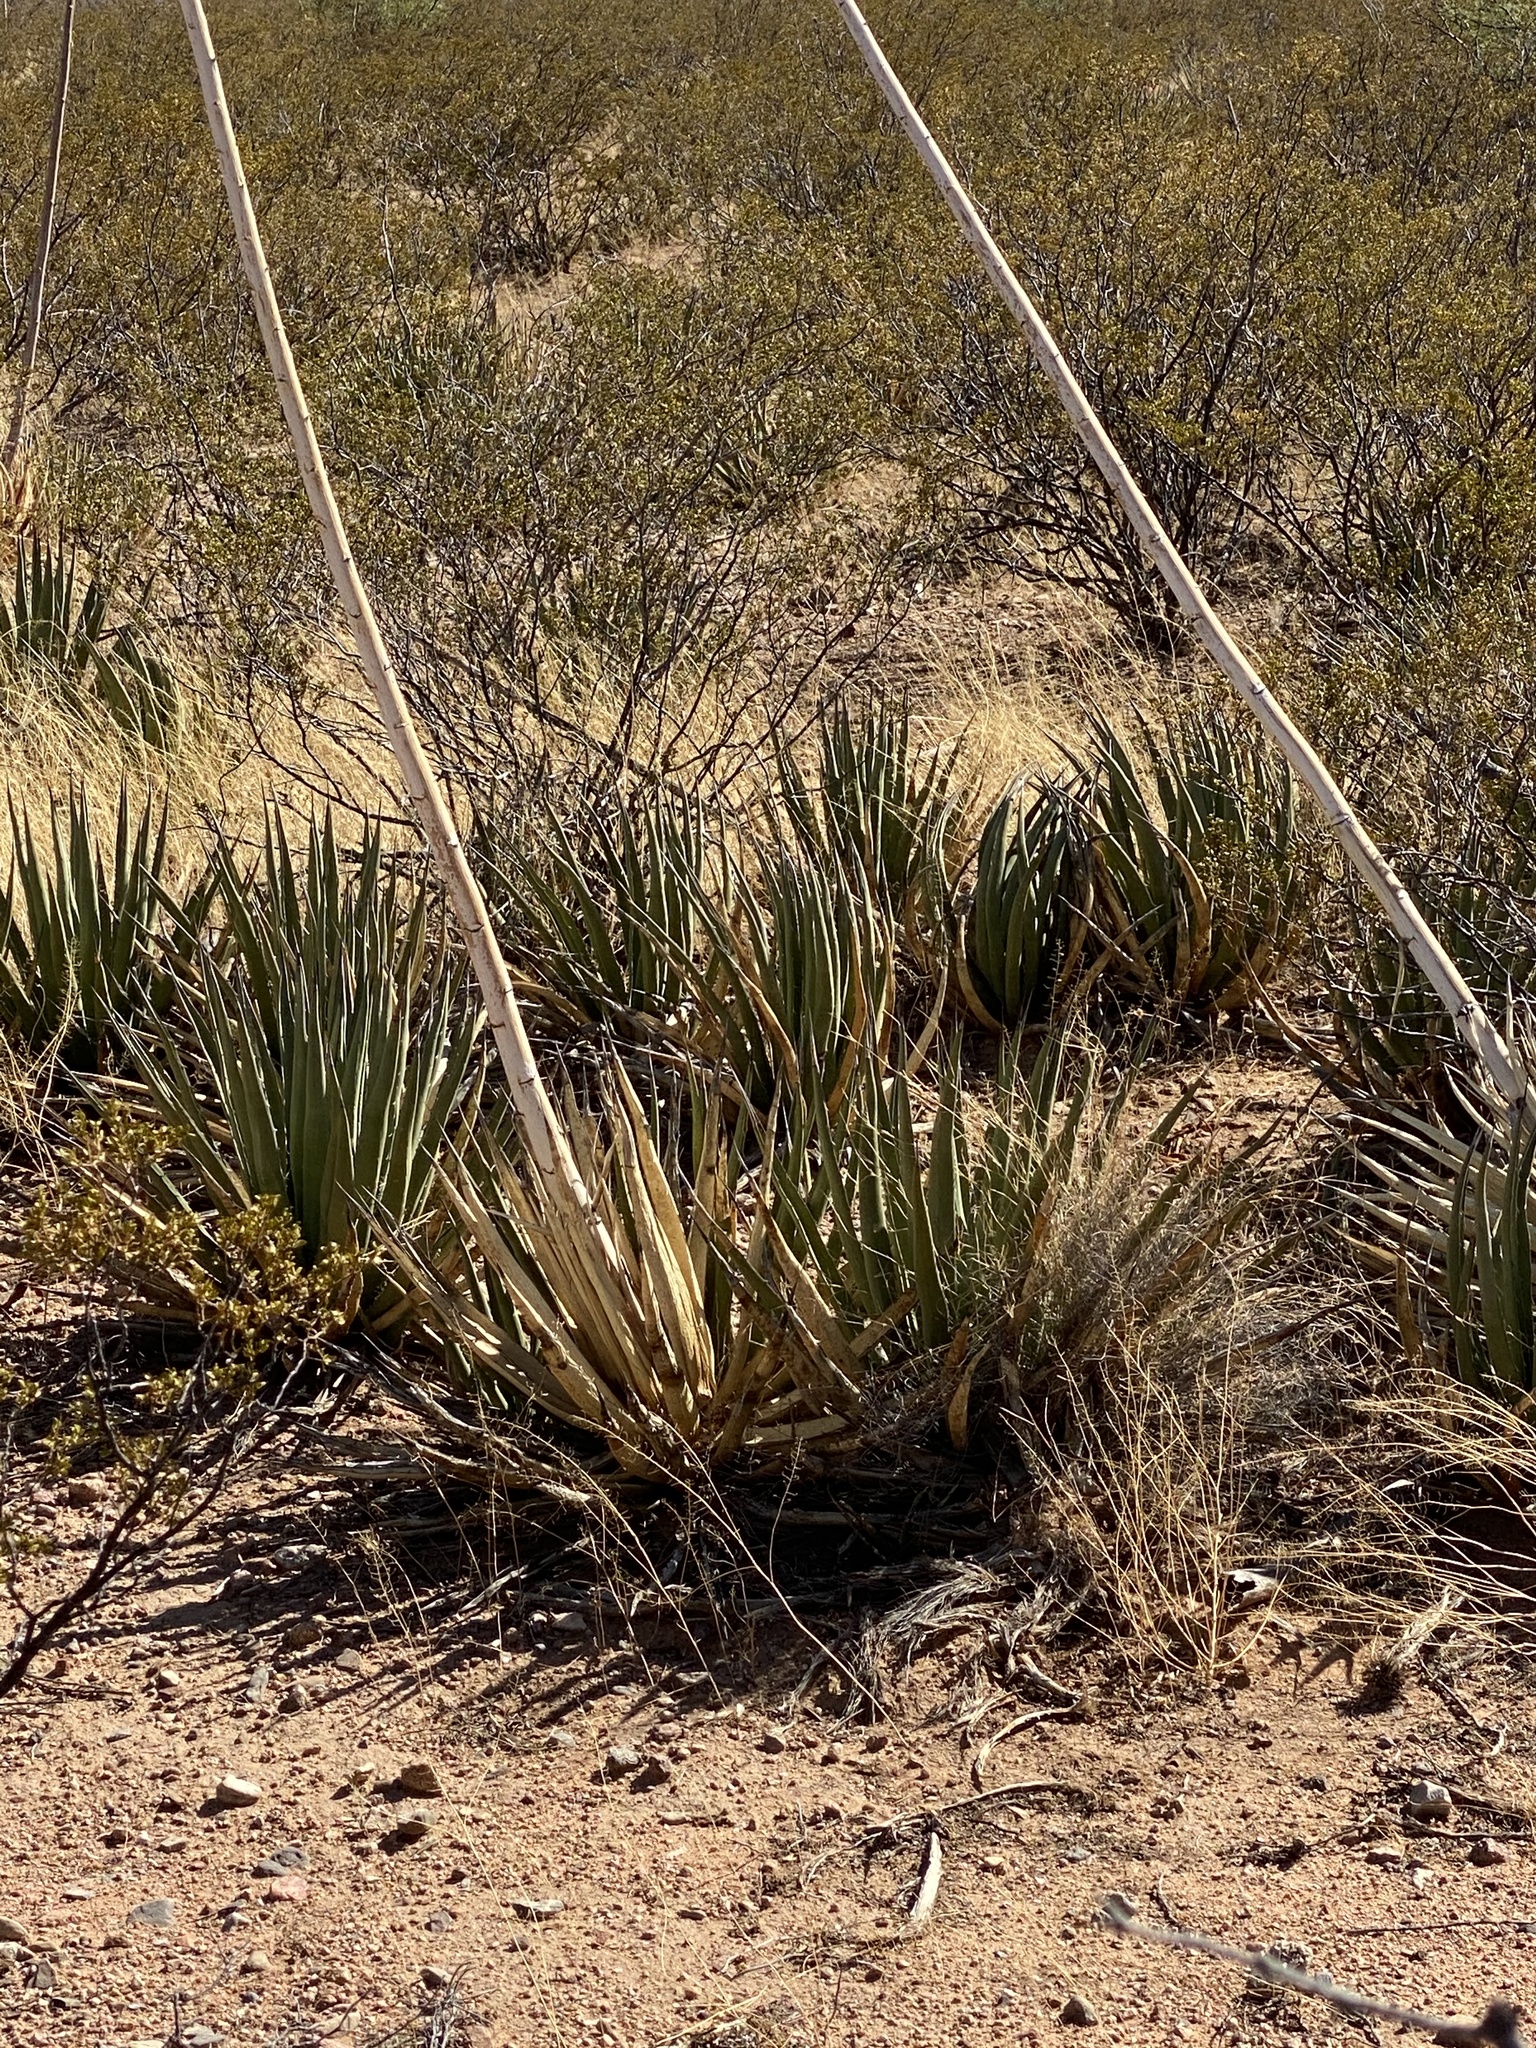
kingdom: Plantae
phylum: Tracheophyta
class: Liliopsida
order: Asparagales
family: Asparagaceae
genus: Agave
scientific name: Agave lechuguilla
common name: Lecheguilla agave
